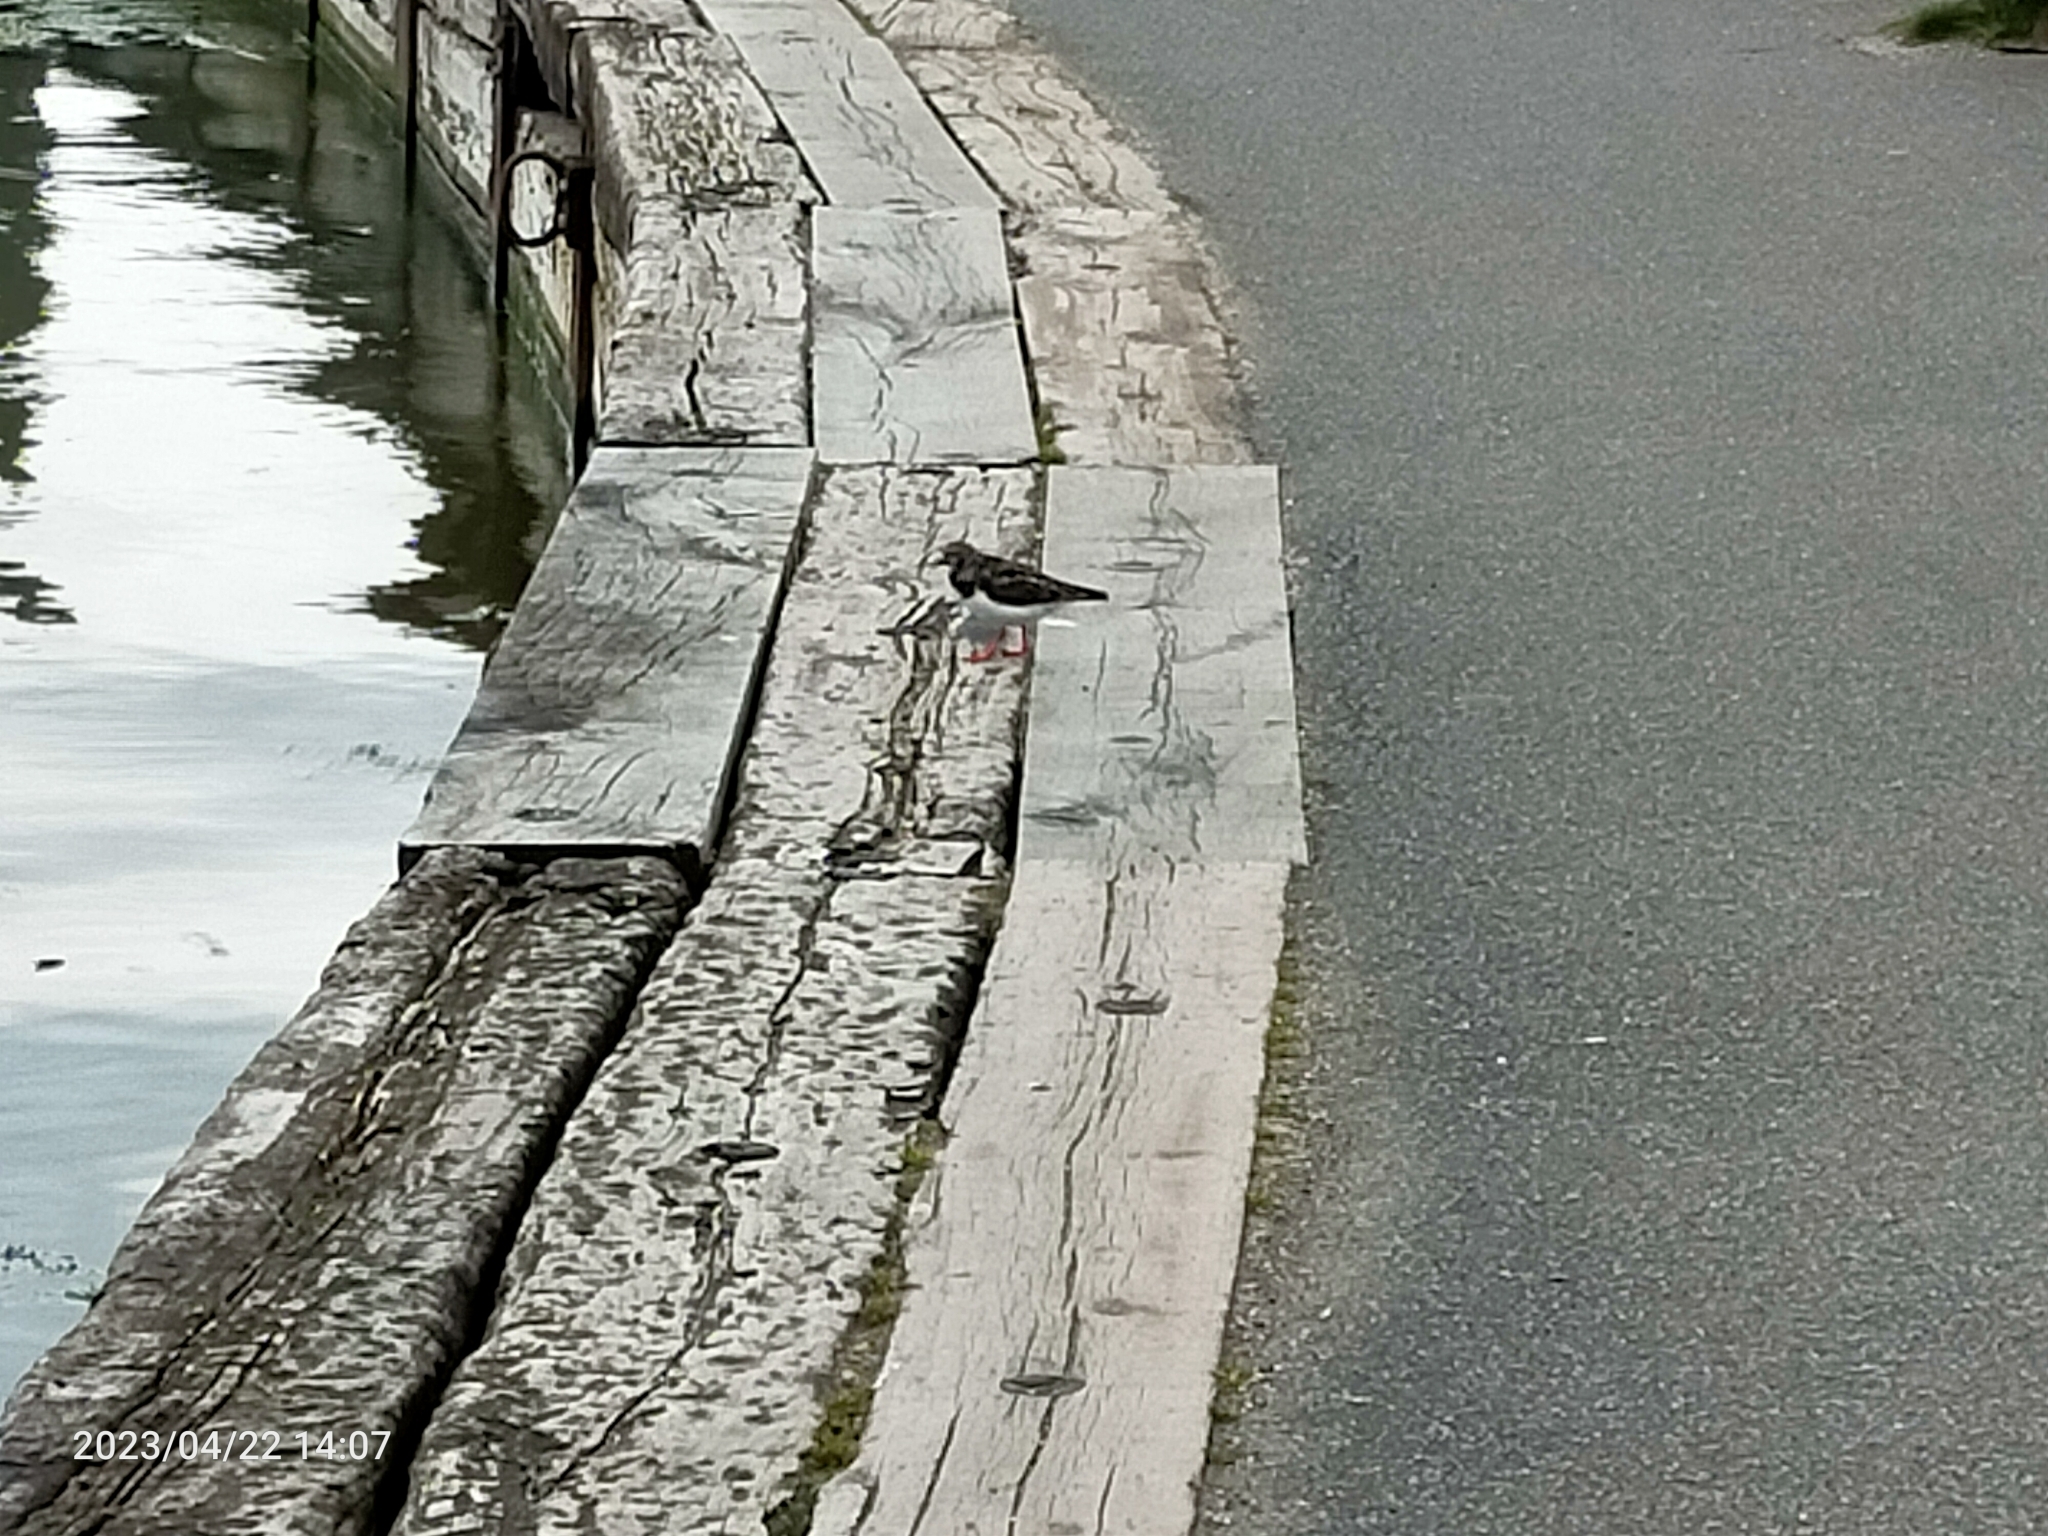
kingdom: Animalia
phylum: Chordata
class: Aves
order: Charadriiformes
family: Scolopacidae
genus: Arenaria
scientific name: Arenaria interpres
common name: Ruddy turnstone
